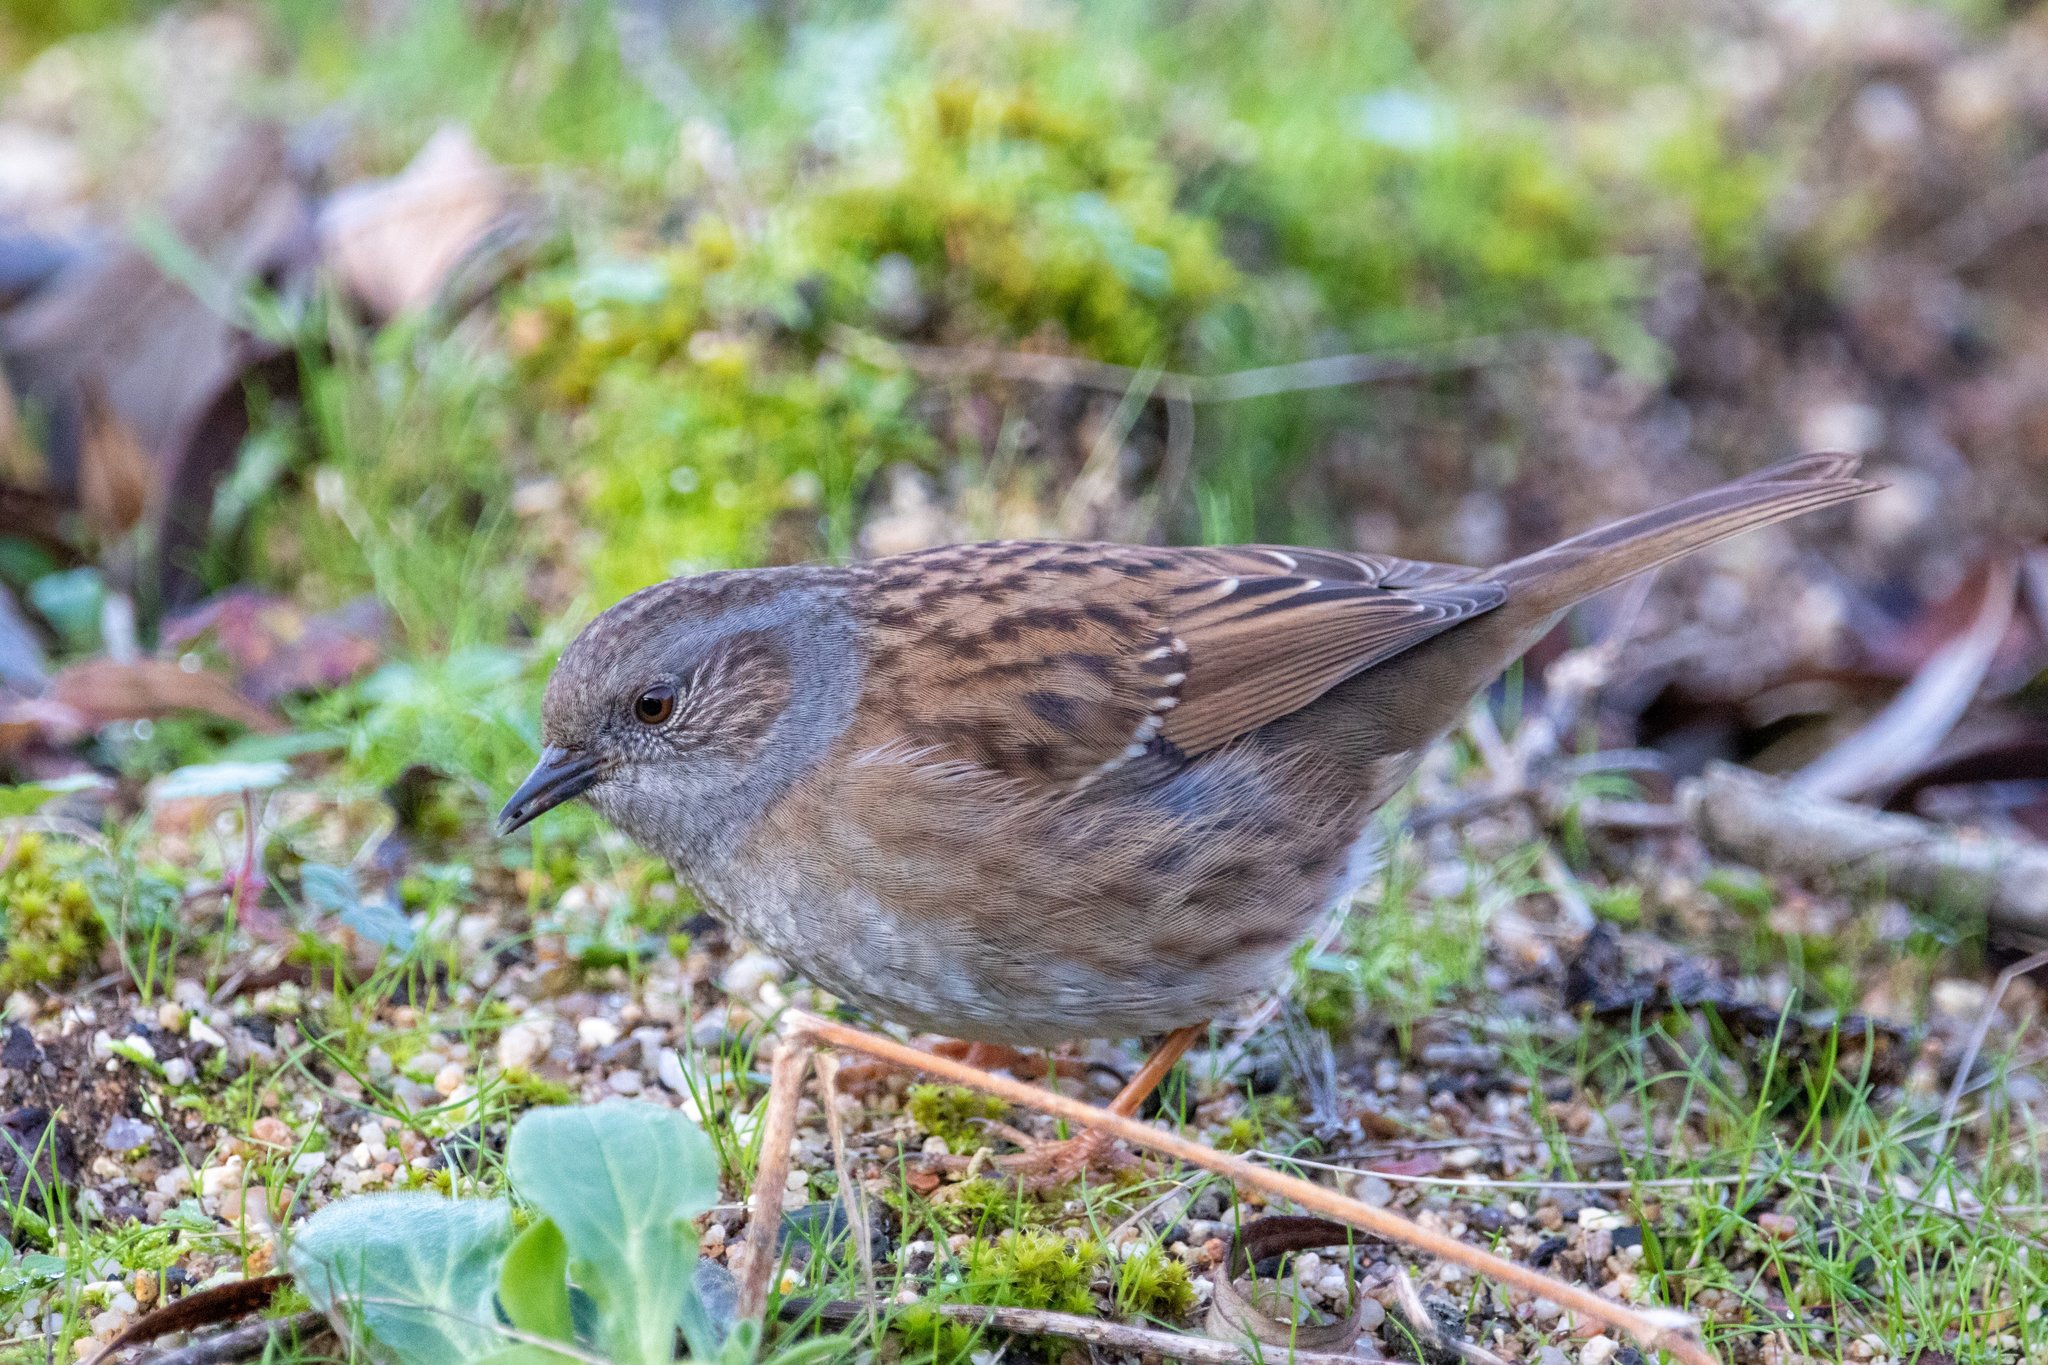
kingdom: Animalia
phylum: Chordata
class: Aves
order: Passeriformes
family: Prunellidae
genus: Prunella
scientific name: Prunella modularis
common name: Dunnock
